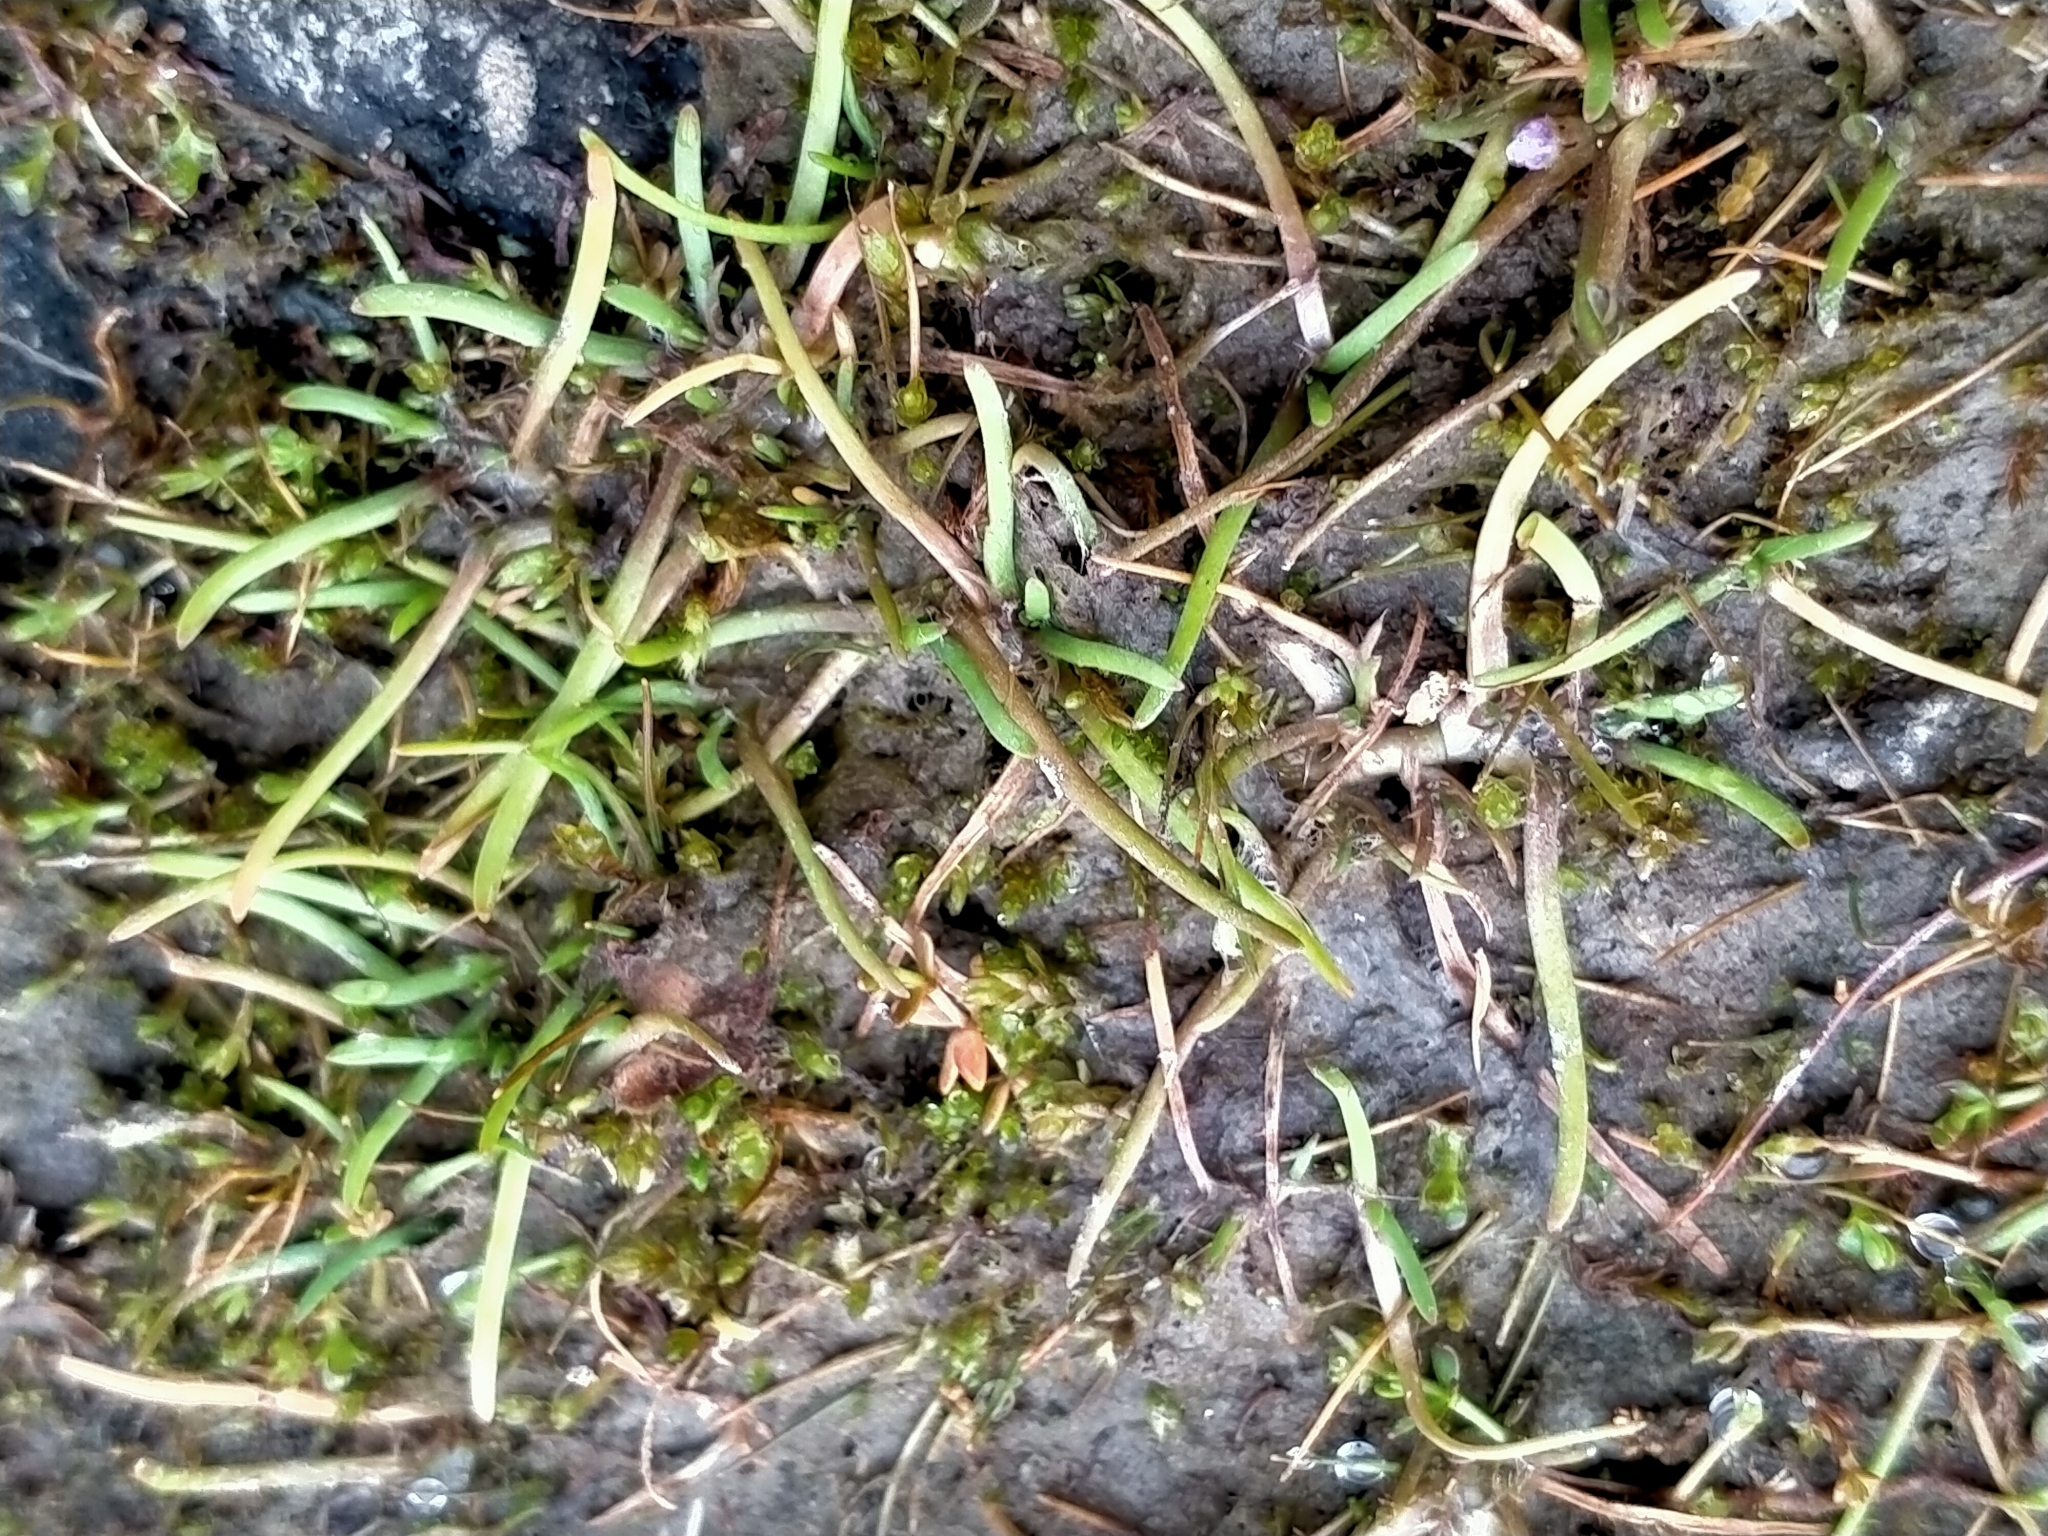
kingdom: Plantae
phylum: Tracheophyta
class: Magnoliopsida
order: Asterales
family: Asteraceae
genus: Leptinella
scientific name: Leptinella maniototo
